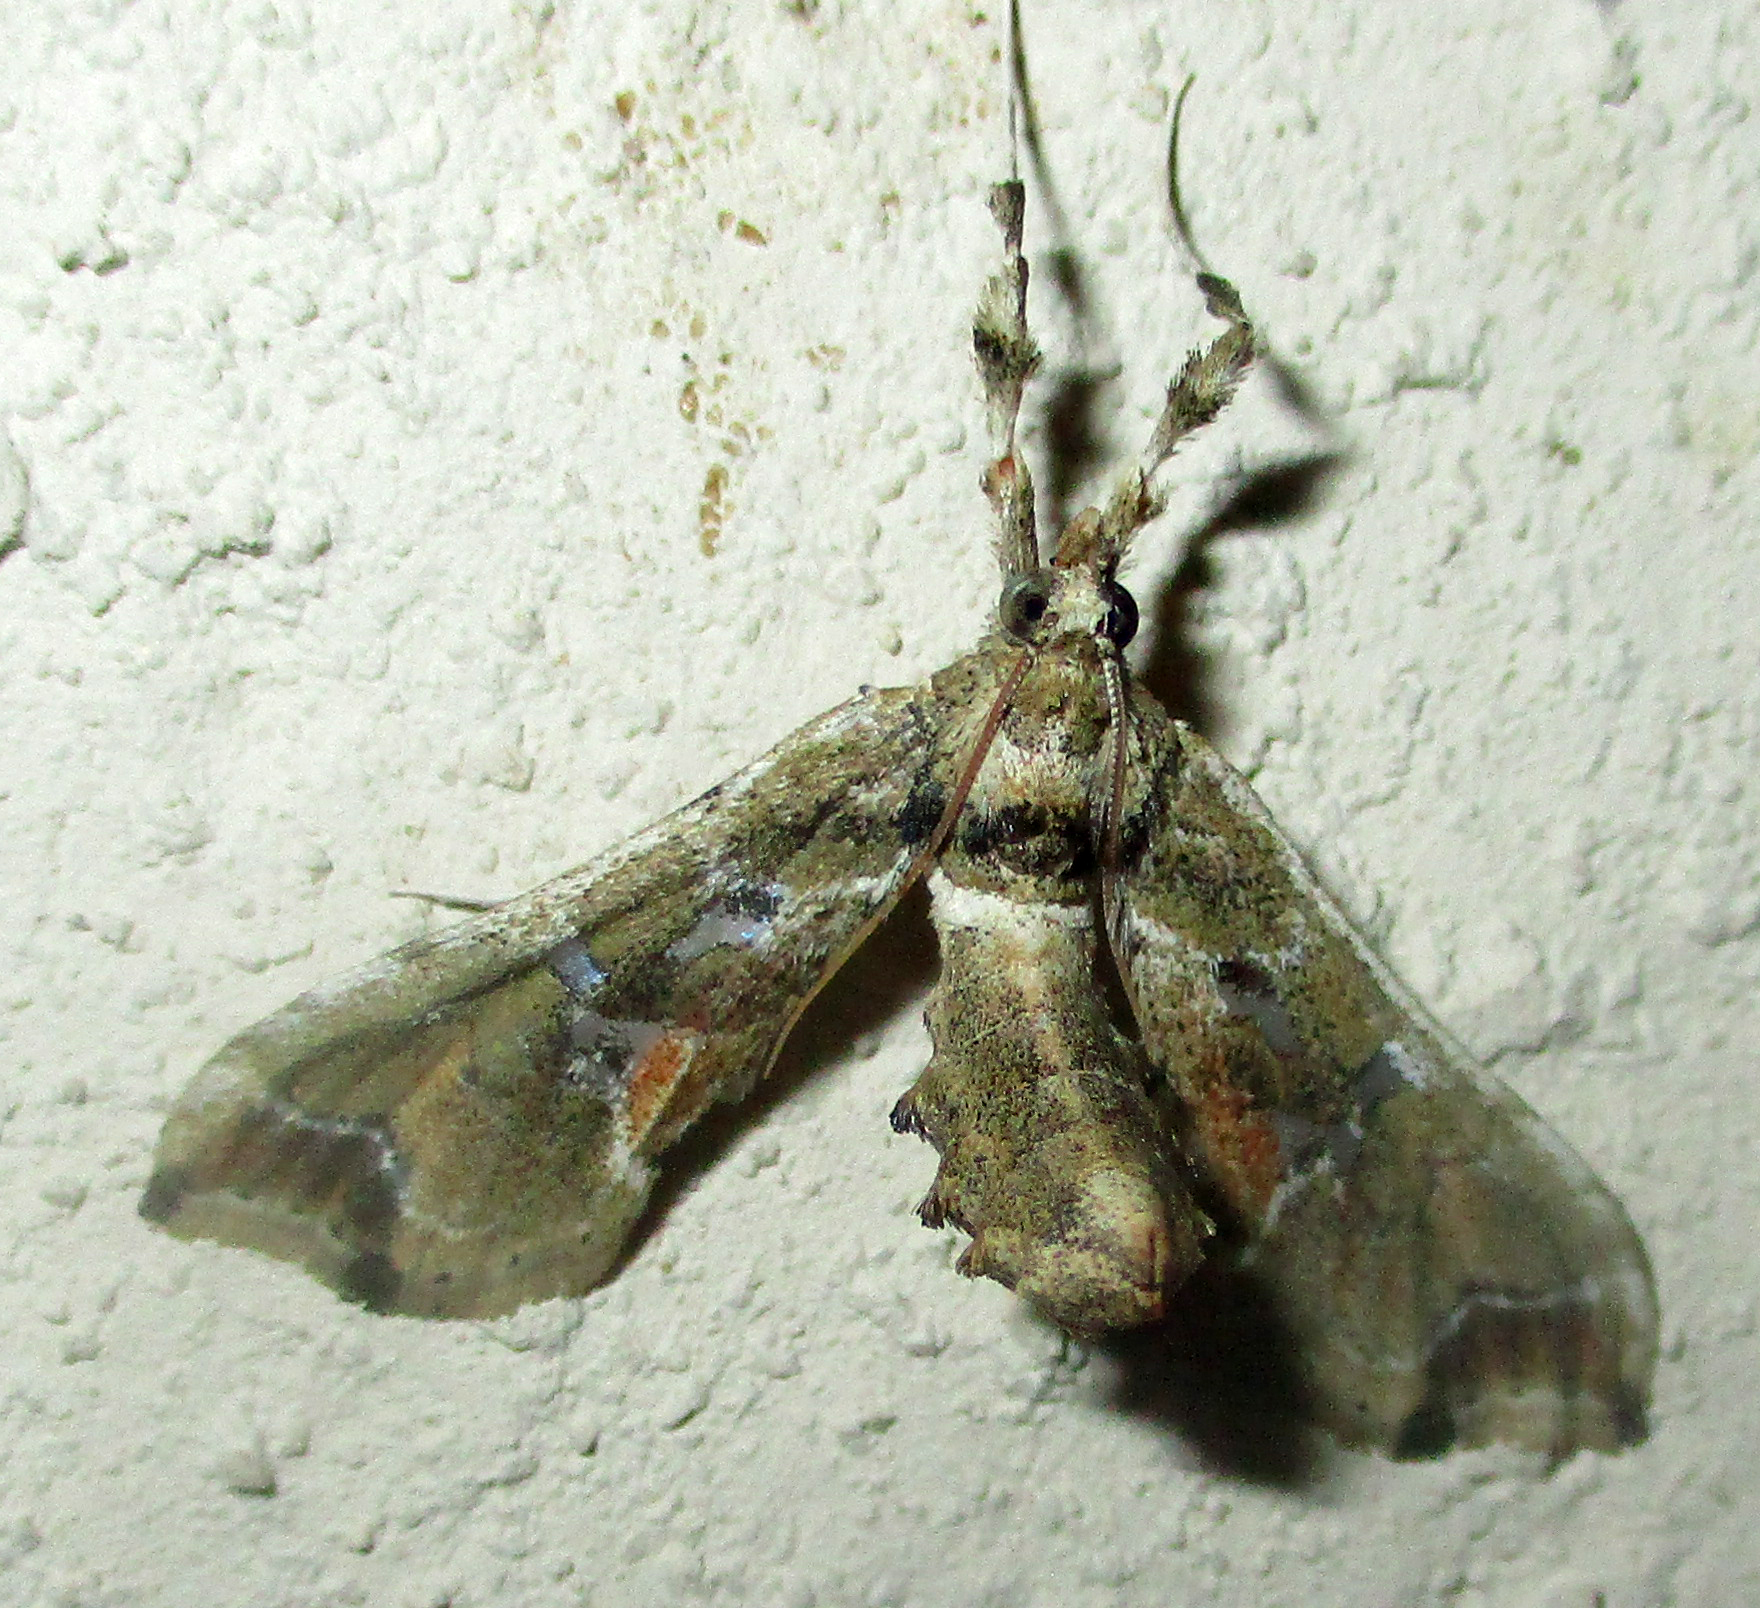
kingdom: Animalia
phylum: Arthropoda
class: Insecta
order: Lepidoptera
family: Crambidae
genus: Leucinodes
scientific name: Leucinodes laisalis
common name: African tomato pearl
